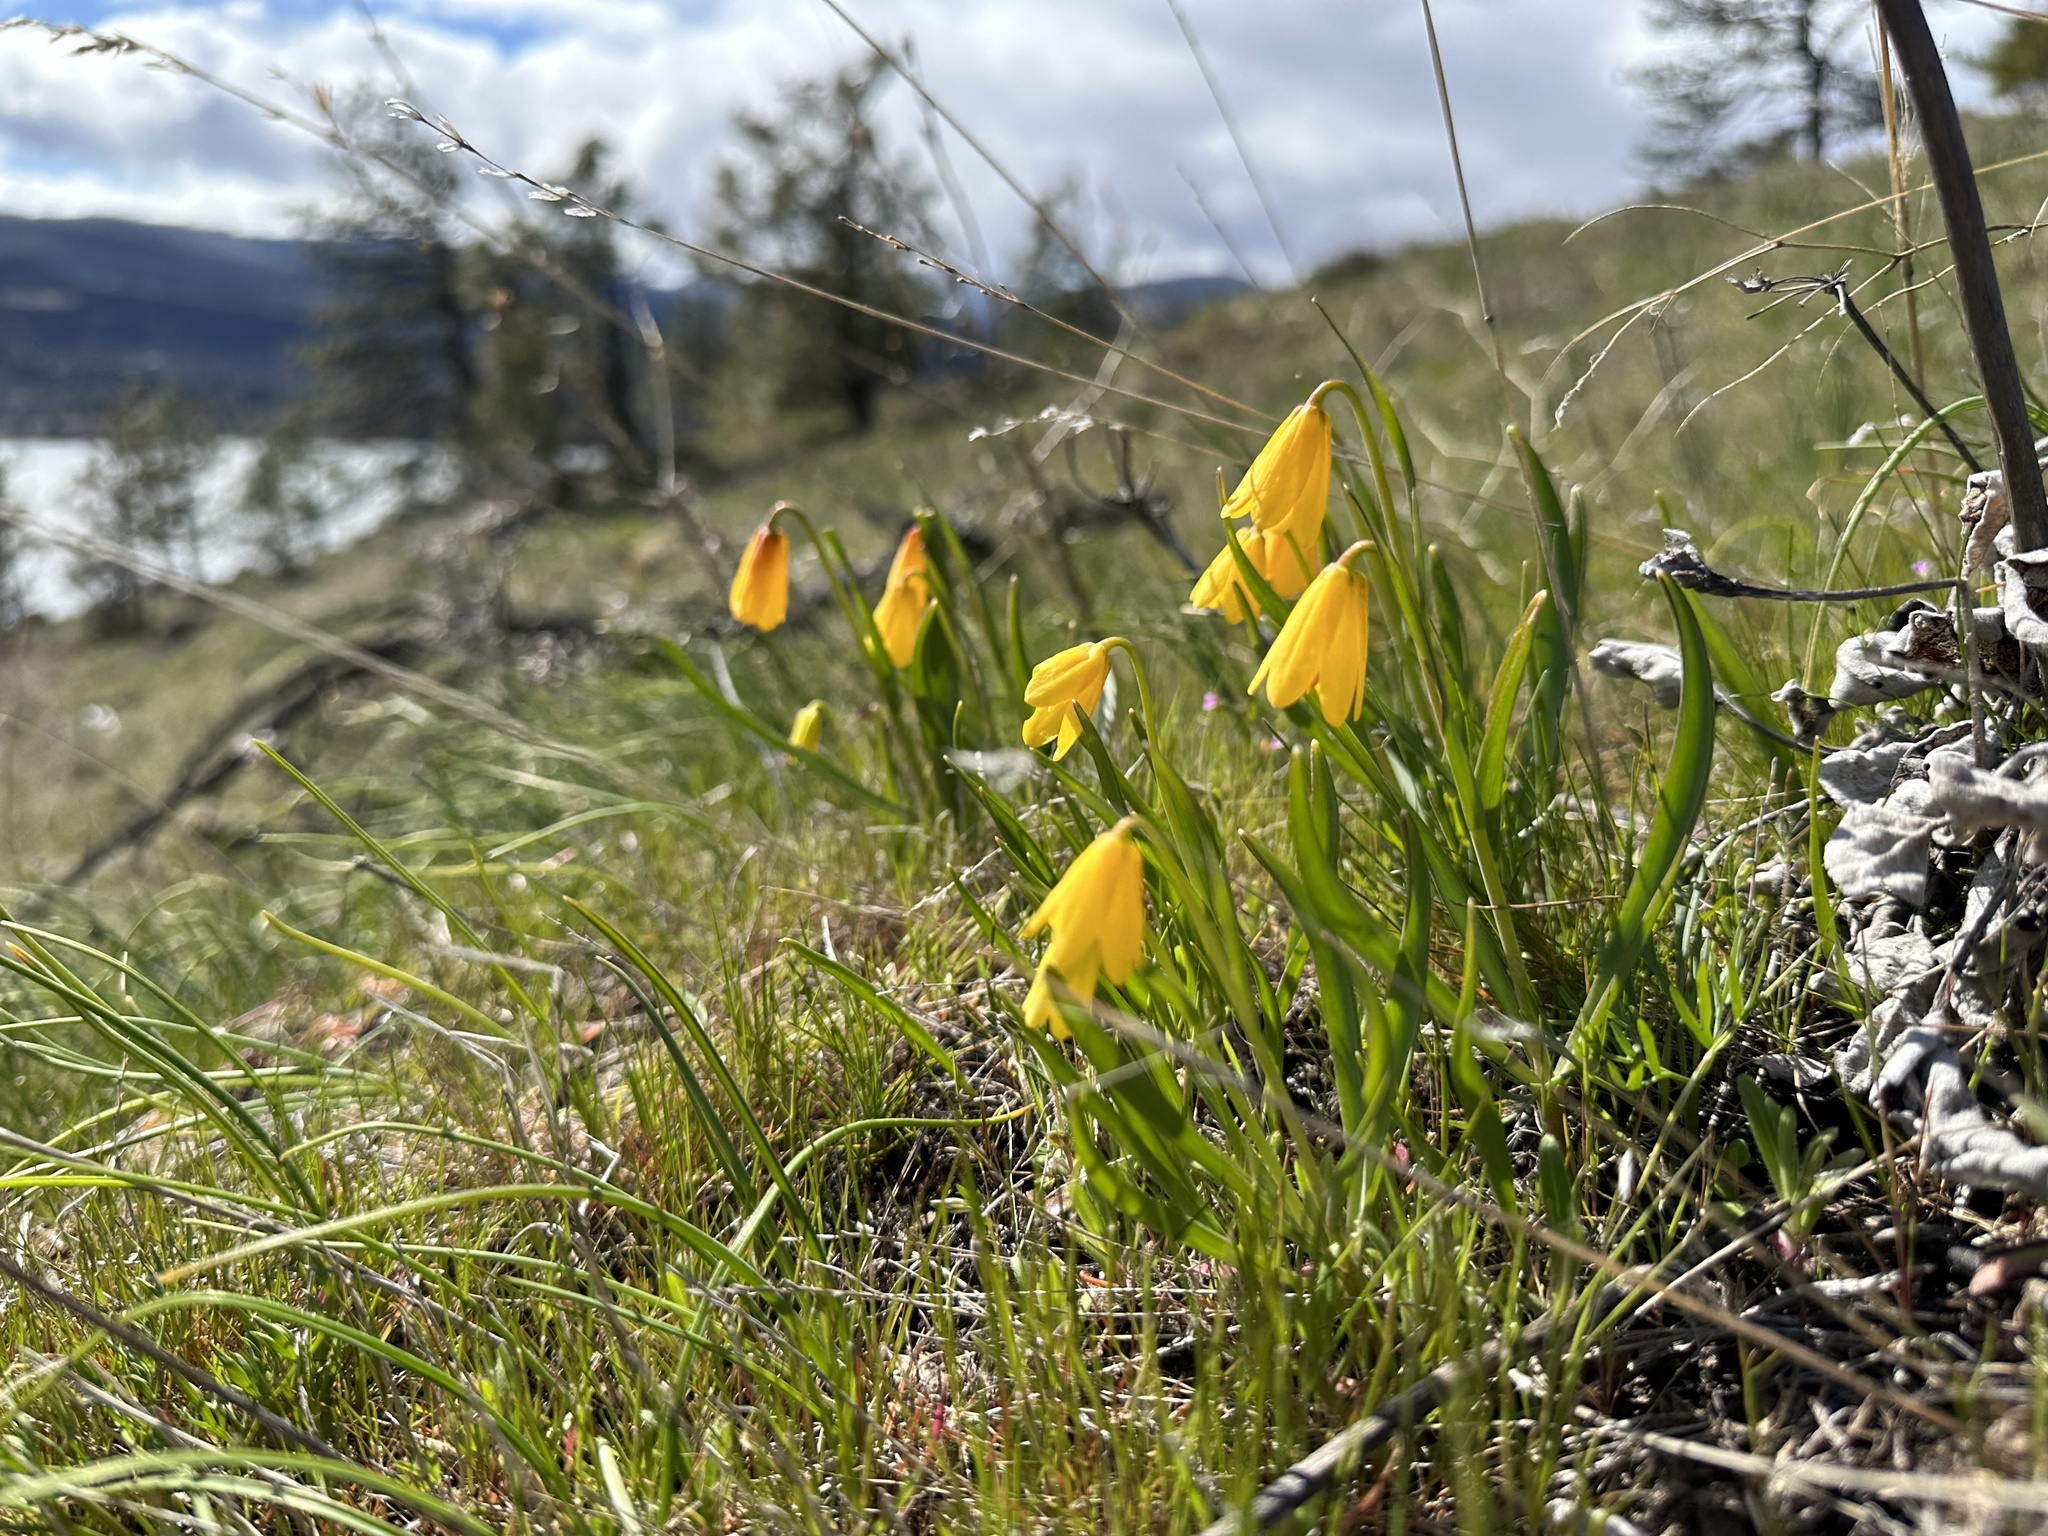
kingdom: Plantae
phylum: Tracheophyta
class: Liliopsida
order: Liliales
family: Liliaceae
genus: Fritillaria
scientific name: Fritillaria pudica
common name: Yellow fritillary
